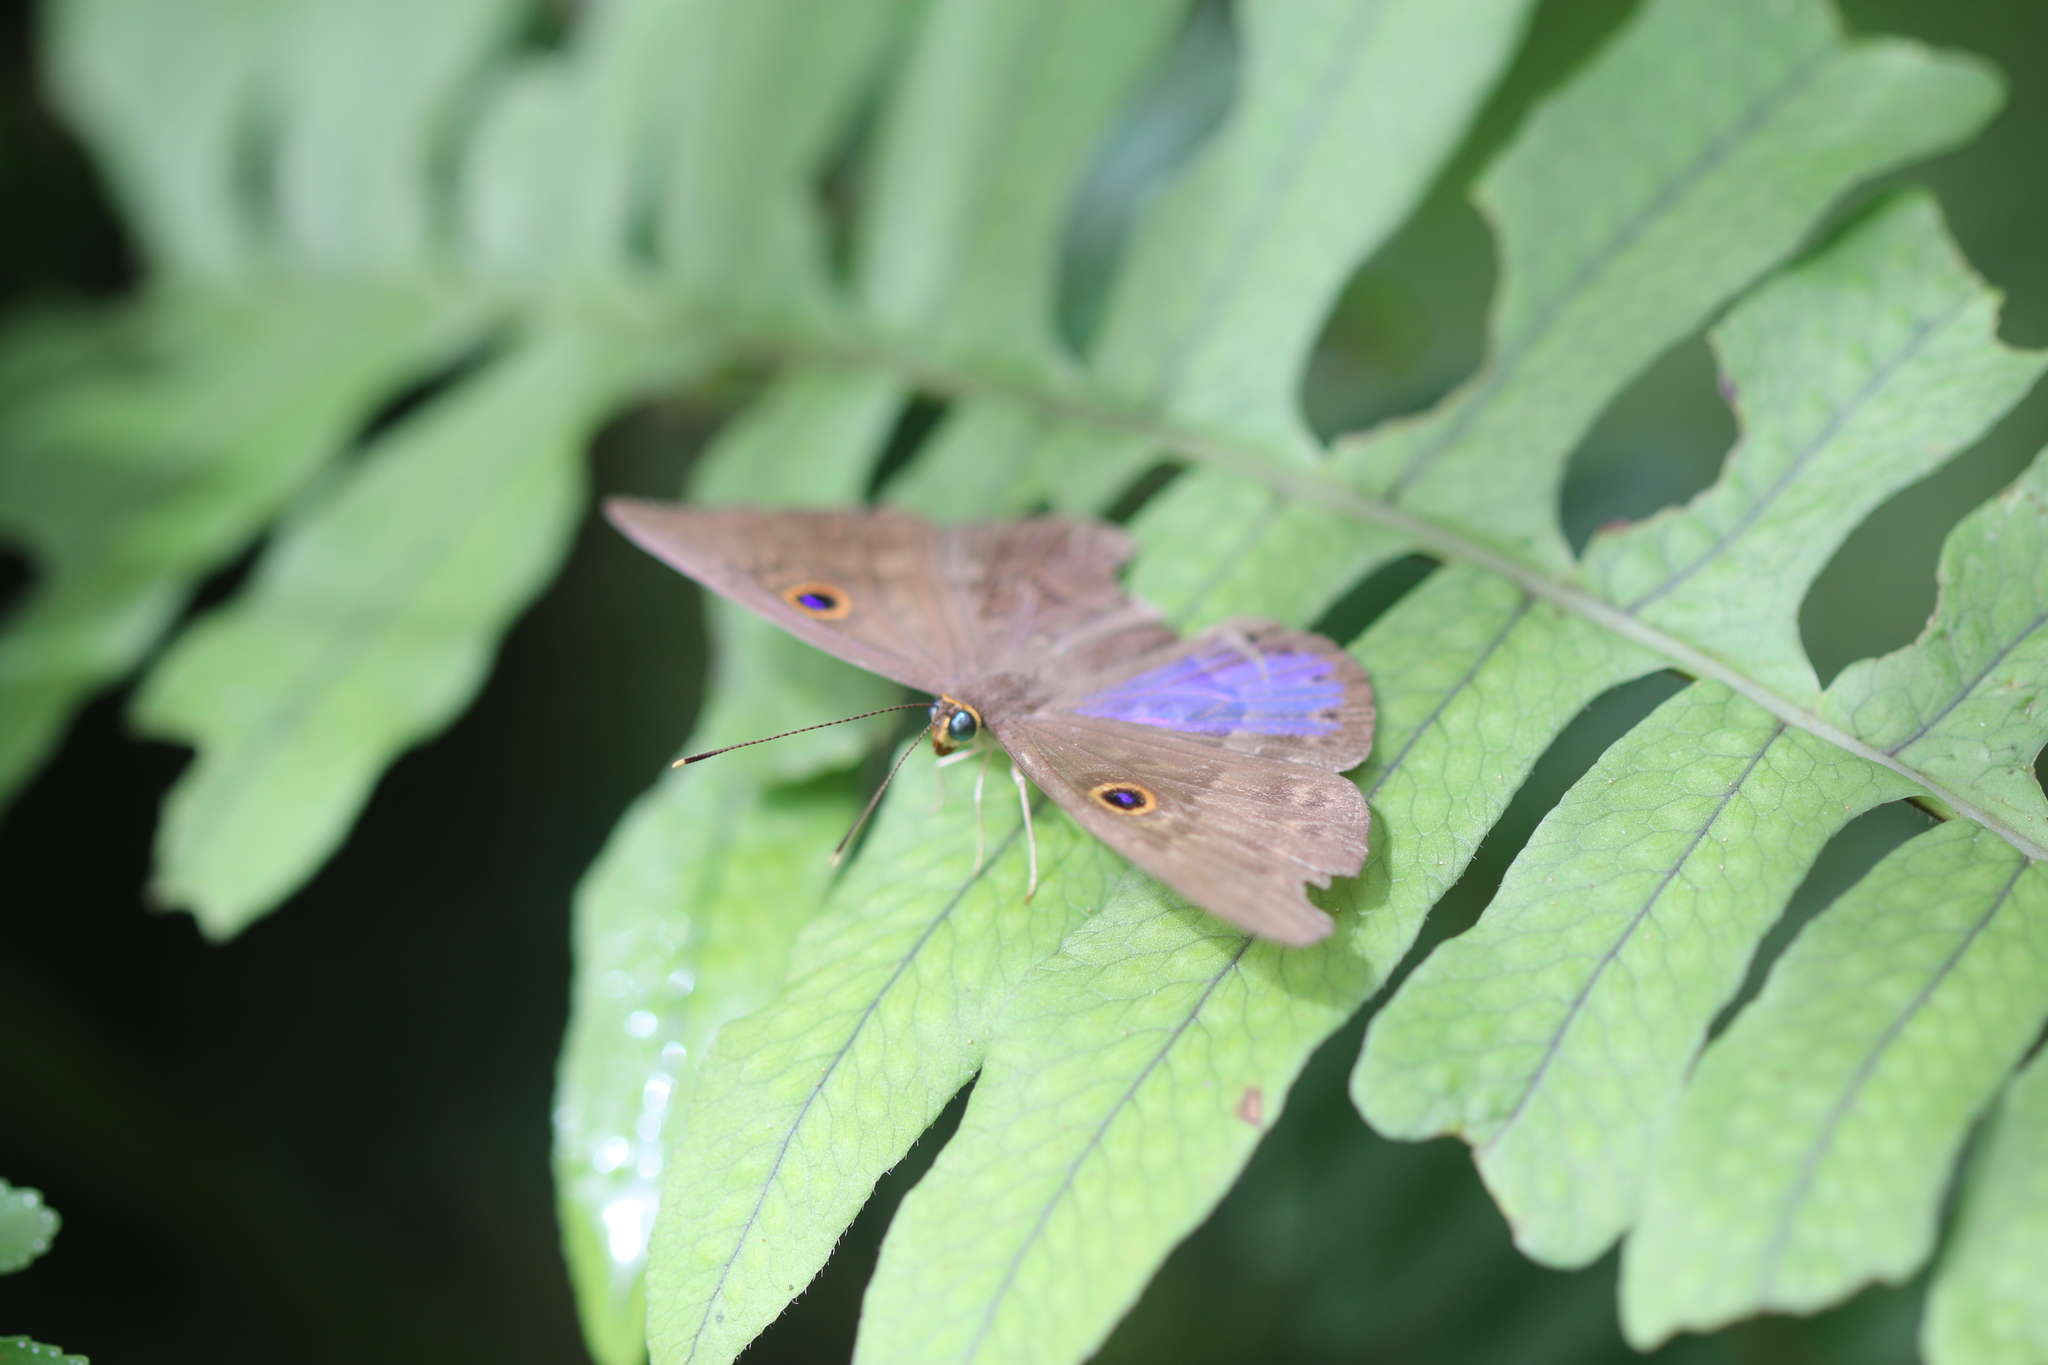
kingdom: Animalia
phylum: Cnidaria
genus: Eurybia
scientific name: Eurybia lycisca
